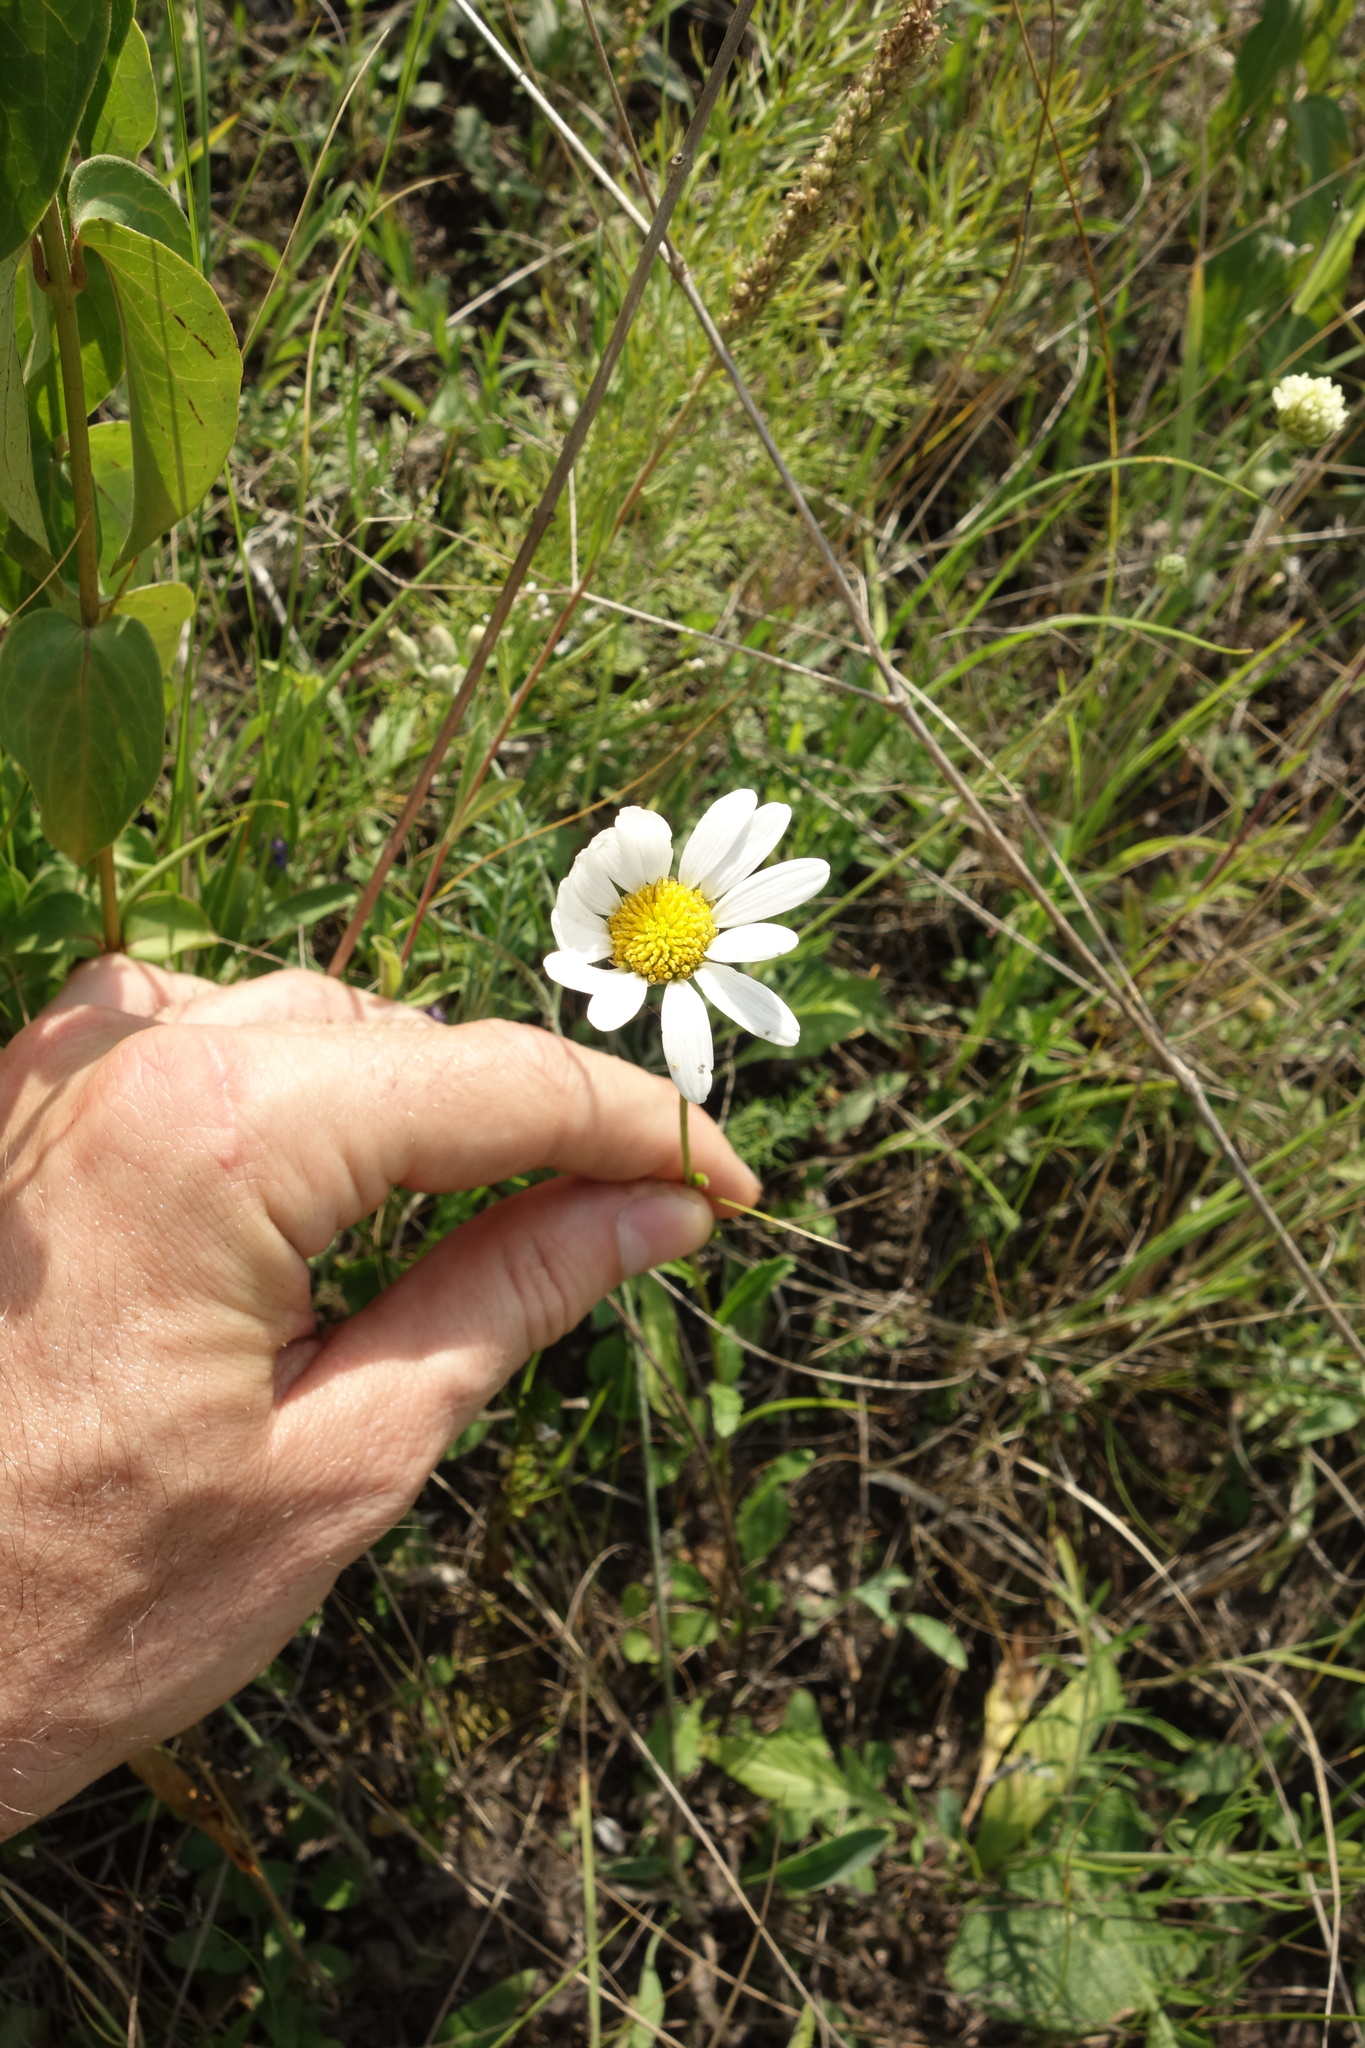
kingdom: Plantae
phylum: Tracheophyta
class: Magnoliopsida
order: Asterales
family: Asteraceae
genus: Leucanthemum
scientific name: Leucanthemum vulgare
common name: Oxeye daisy
